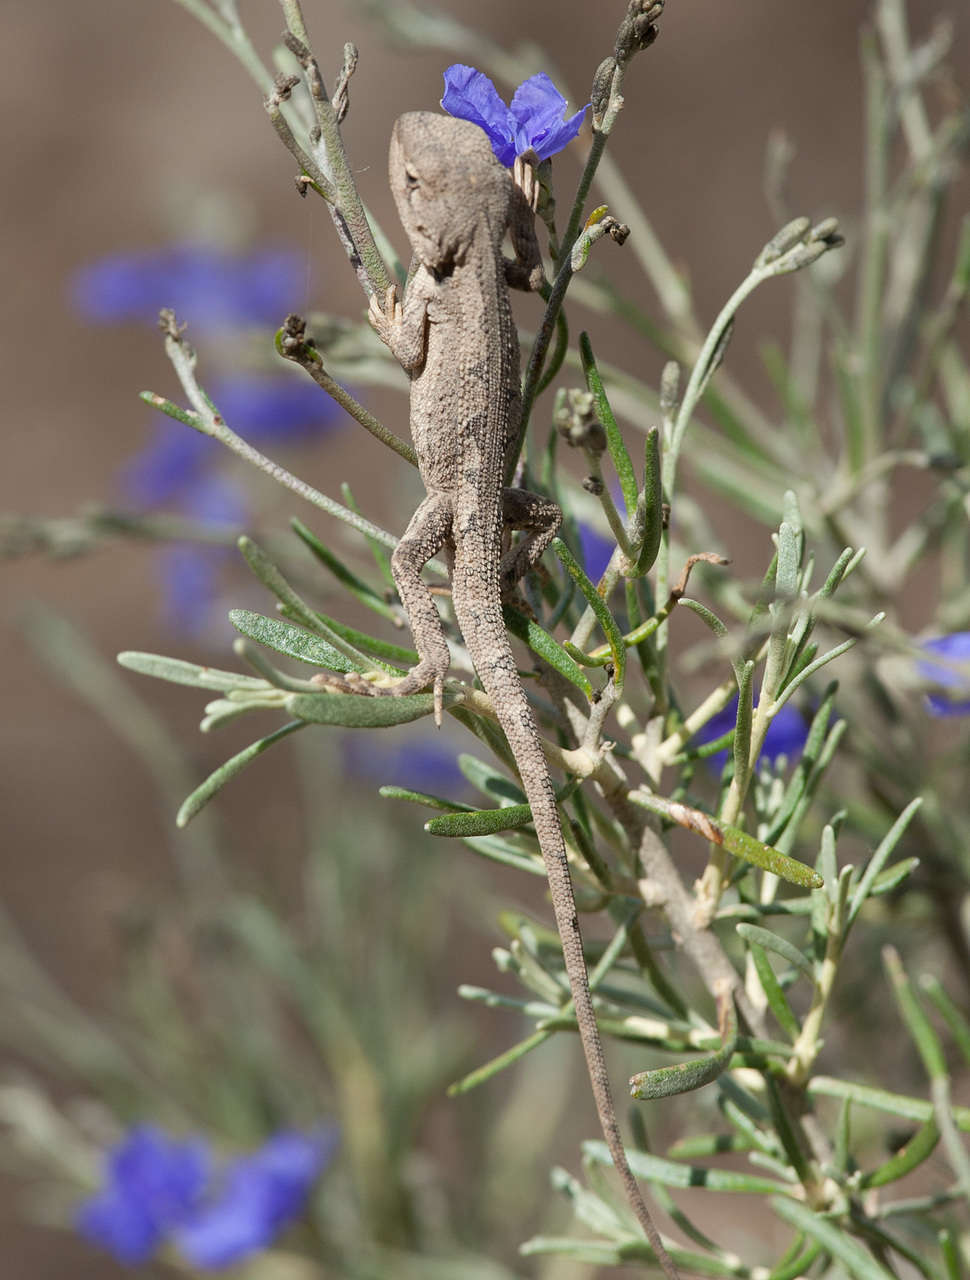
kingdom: Animalia
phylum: Chordata
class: Squamata
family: Agamidae
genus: Amphibolurus
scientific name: Amphibolurus muricatus
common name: Jacky lizard
